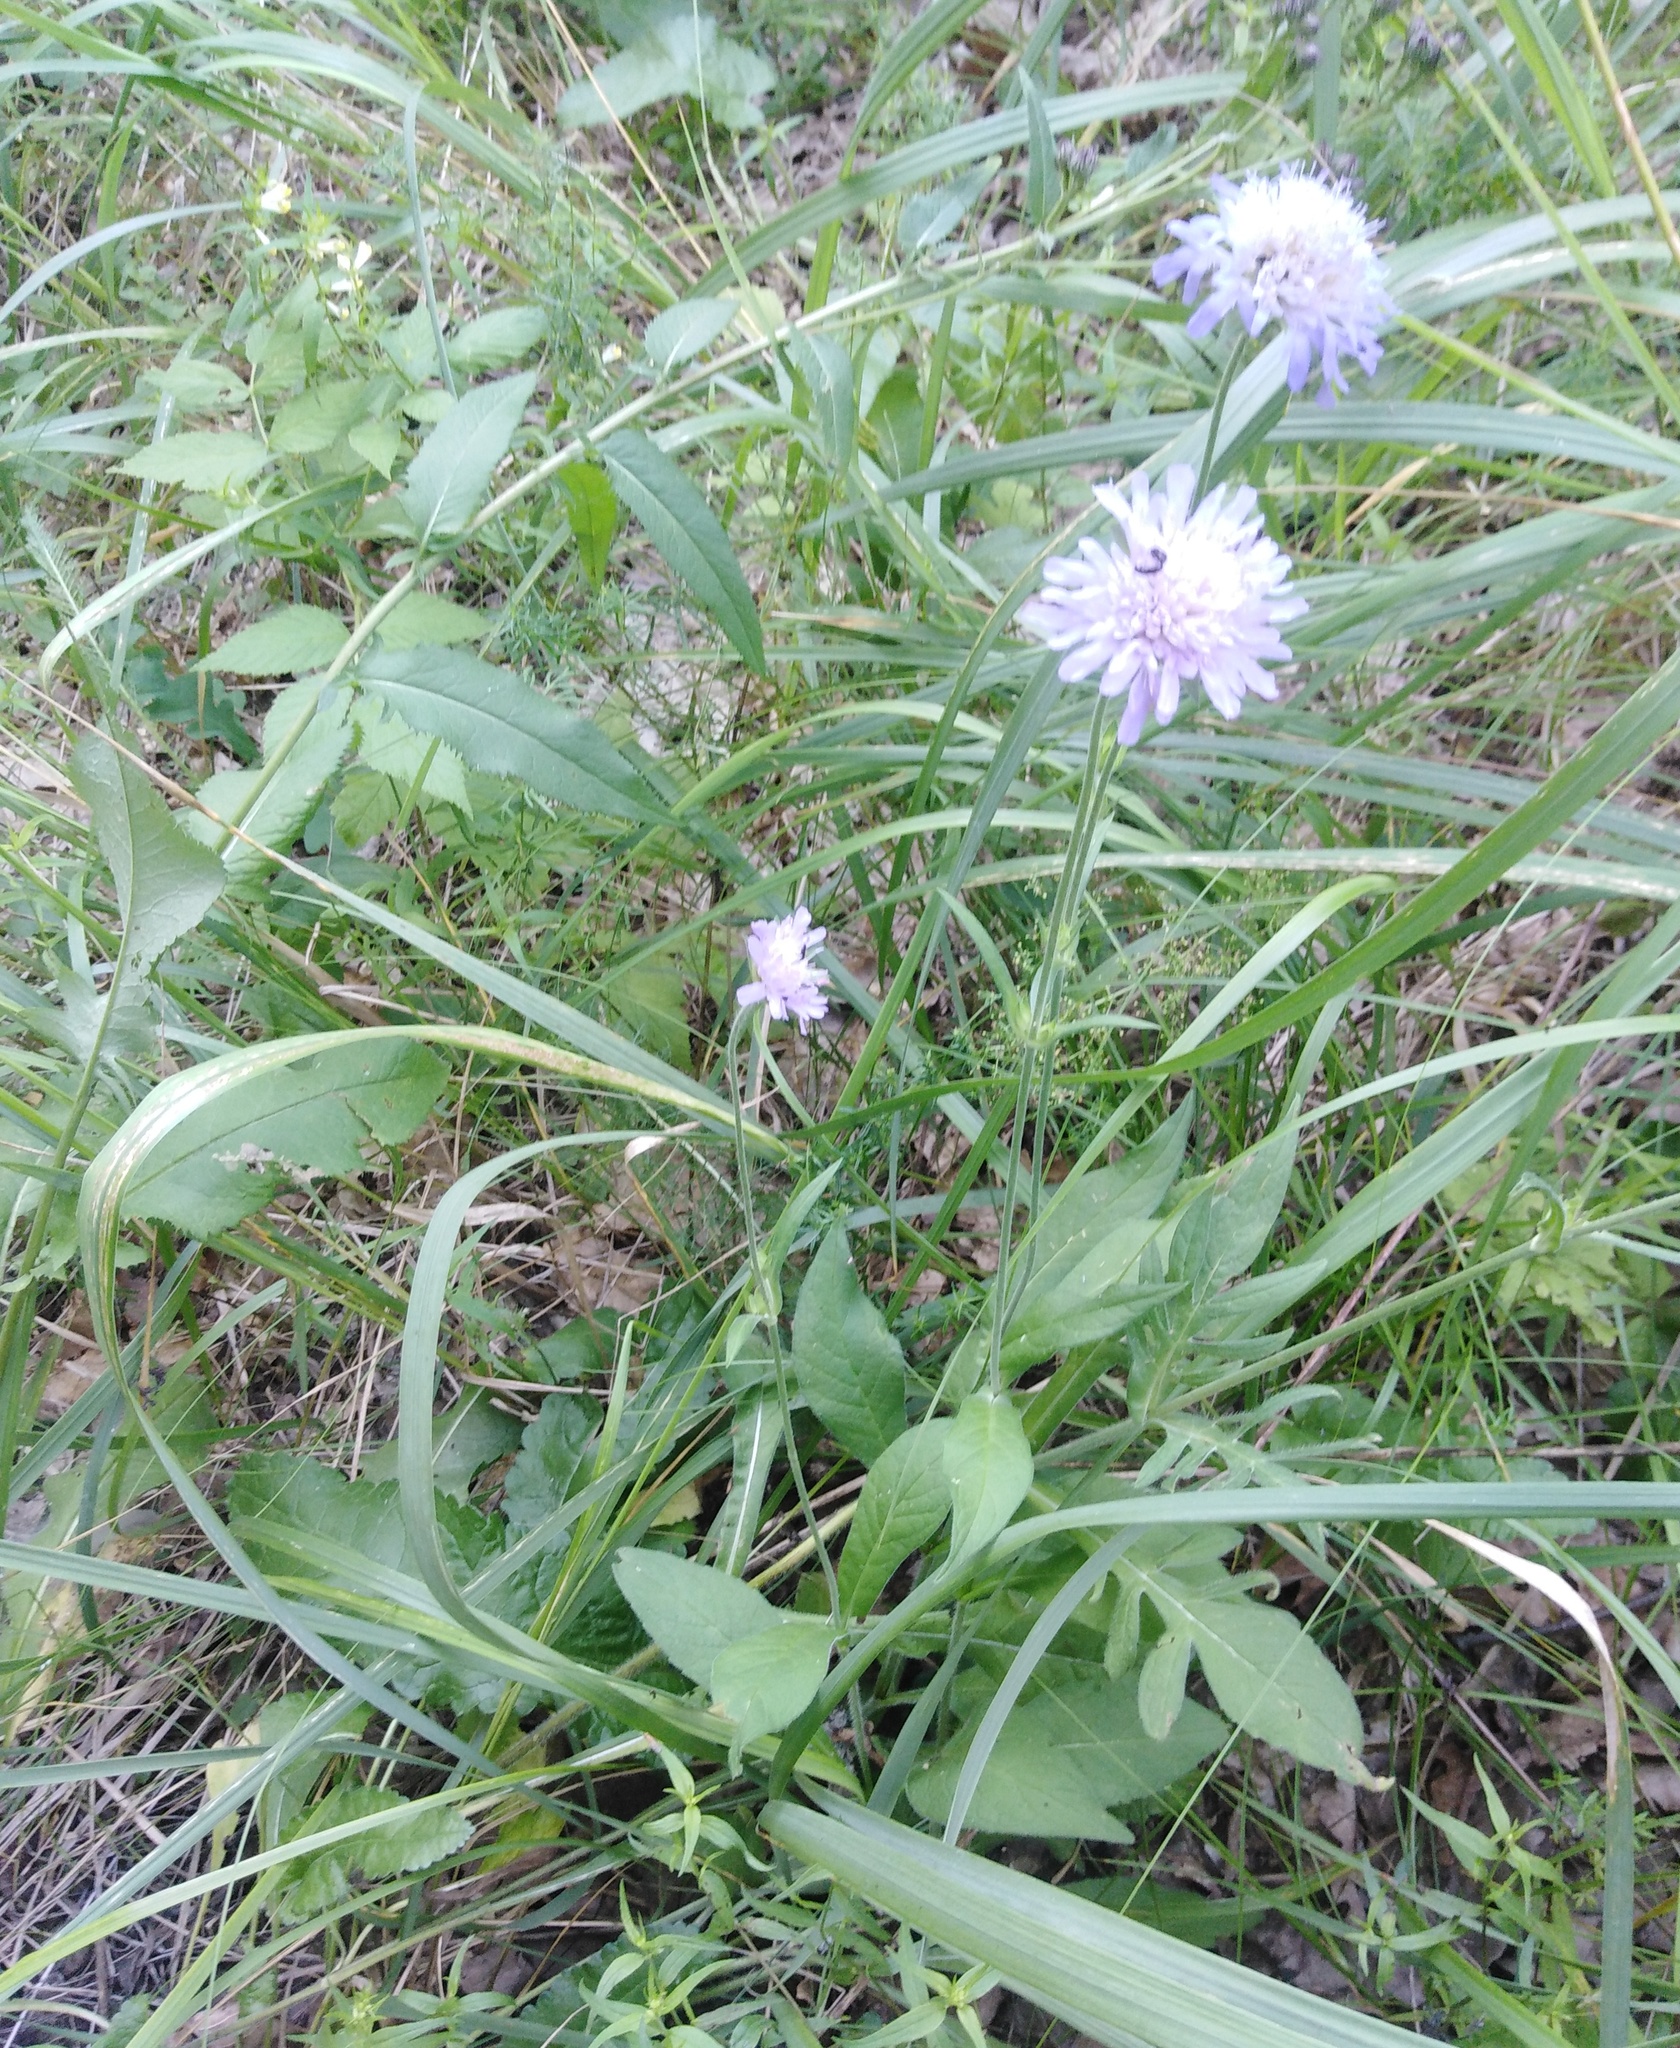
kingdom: Plantae
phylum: Tracheophyta
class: Magnoliopsida
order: Dipsacales
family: Caprifoliaceae
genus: Knautia
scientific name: Knautia arvensis
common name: Field scabiosa
